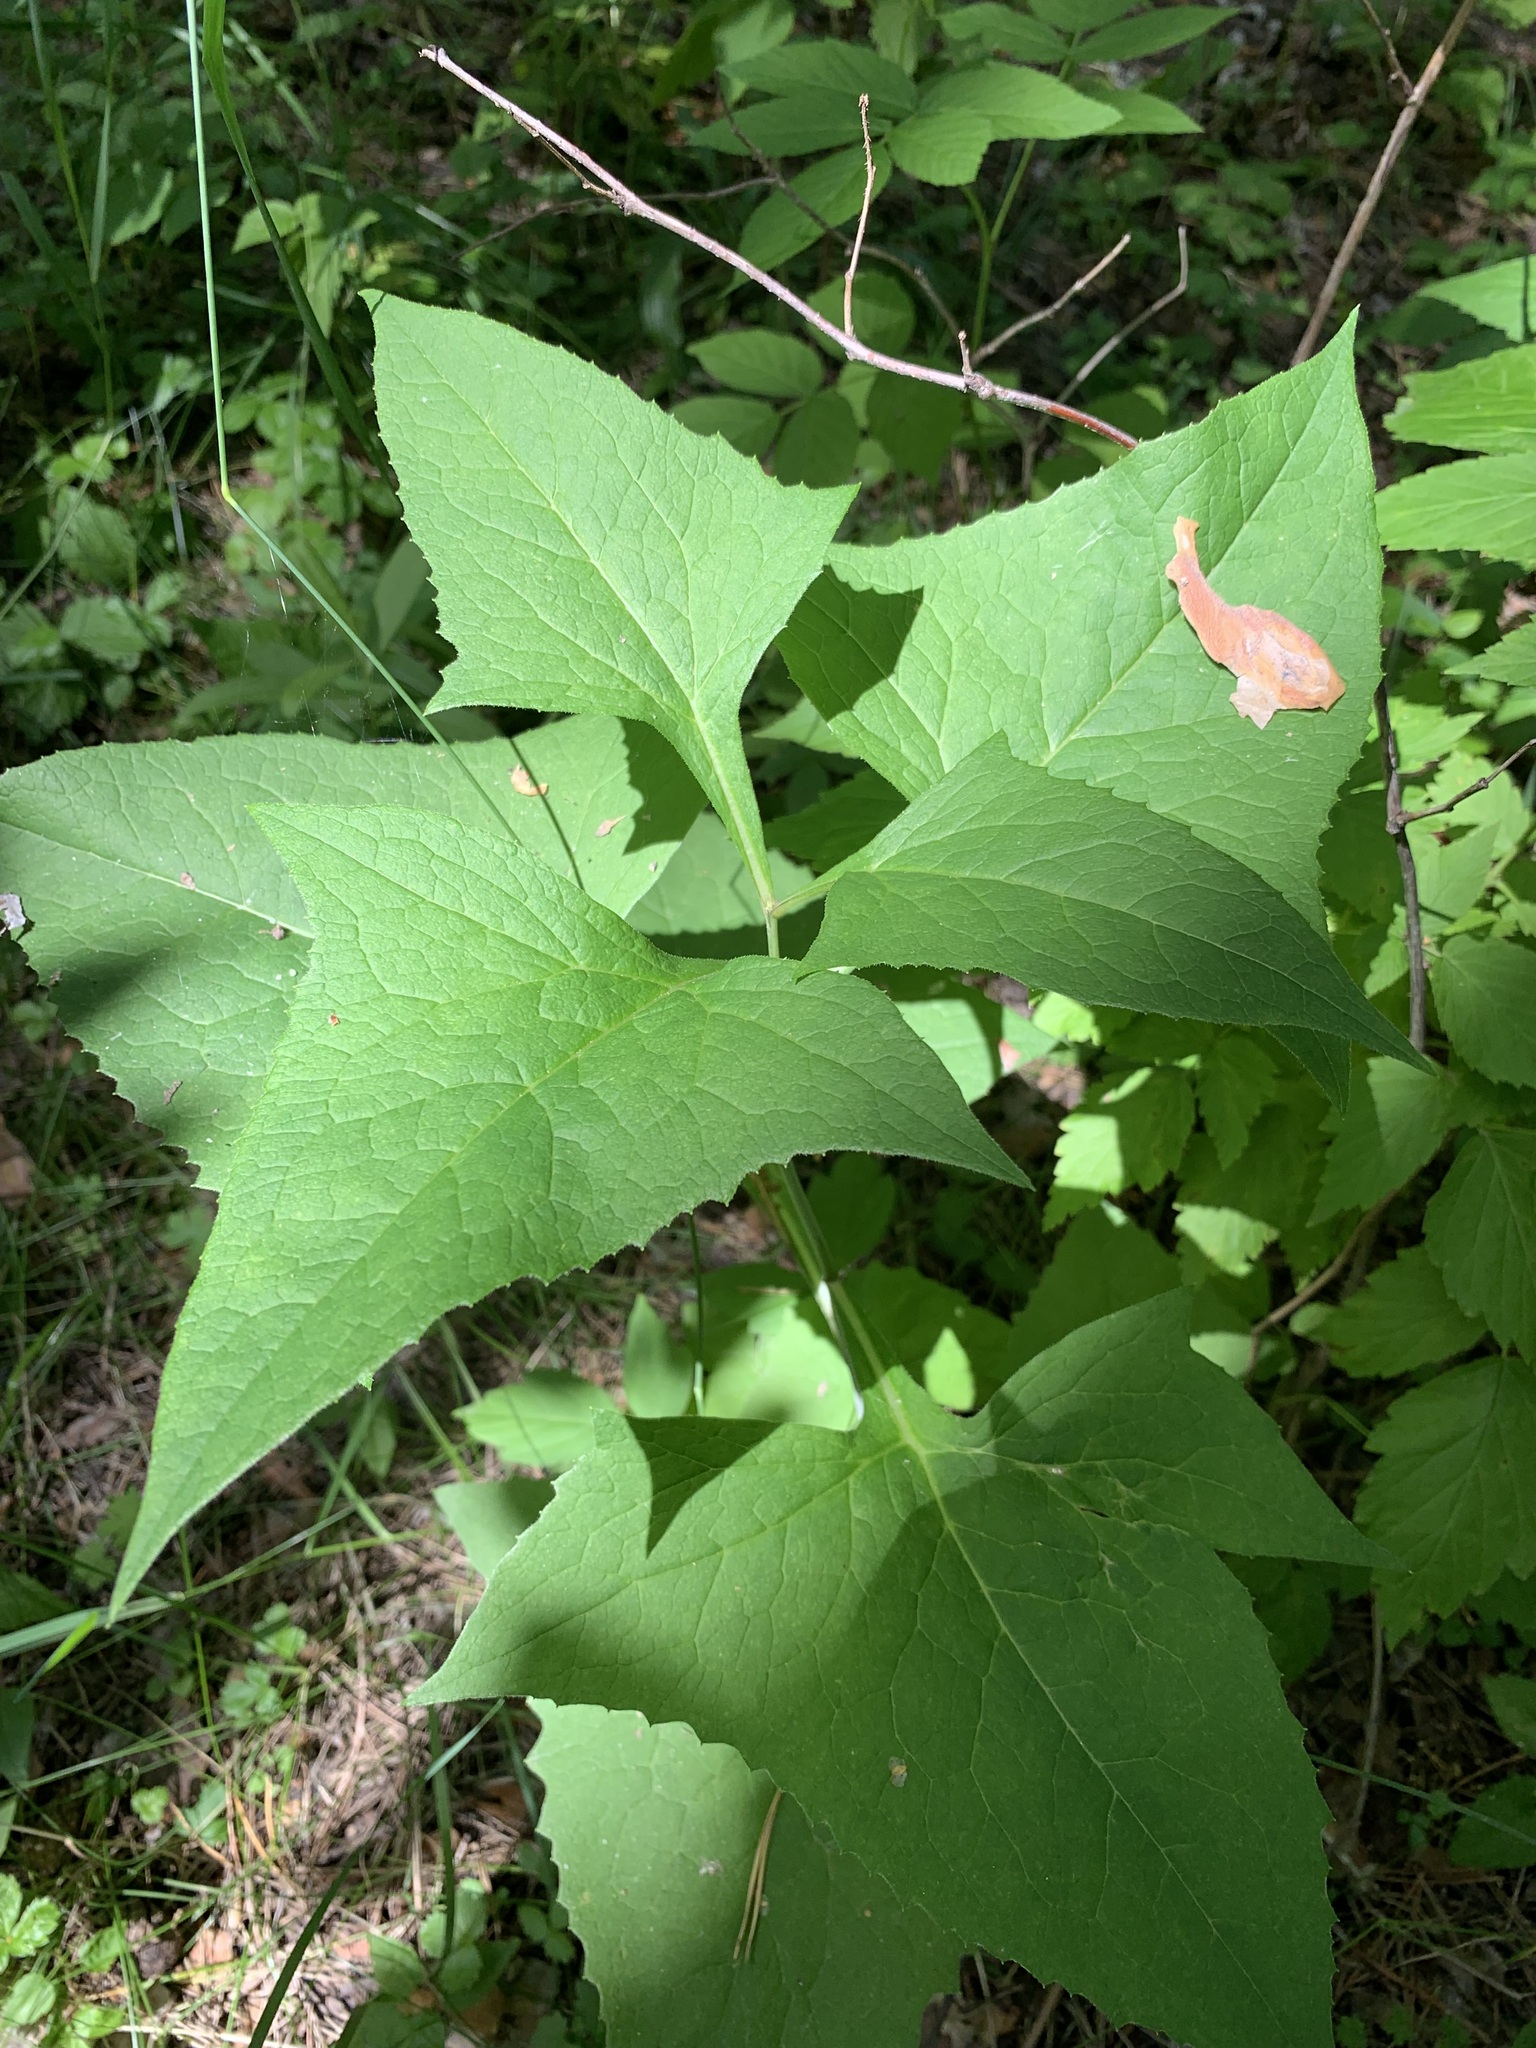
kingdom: Plantae
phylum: Tracheophyta
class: Magnoliopsida
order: Asterales
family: Asteraceae
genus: Parasenecio
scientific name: Parasenecio hastatus
